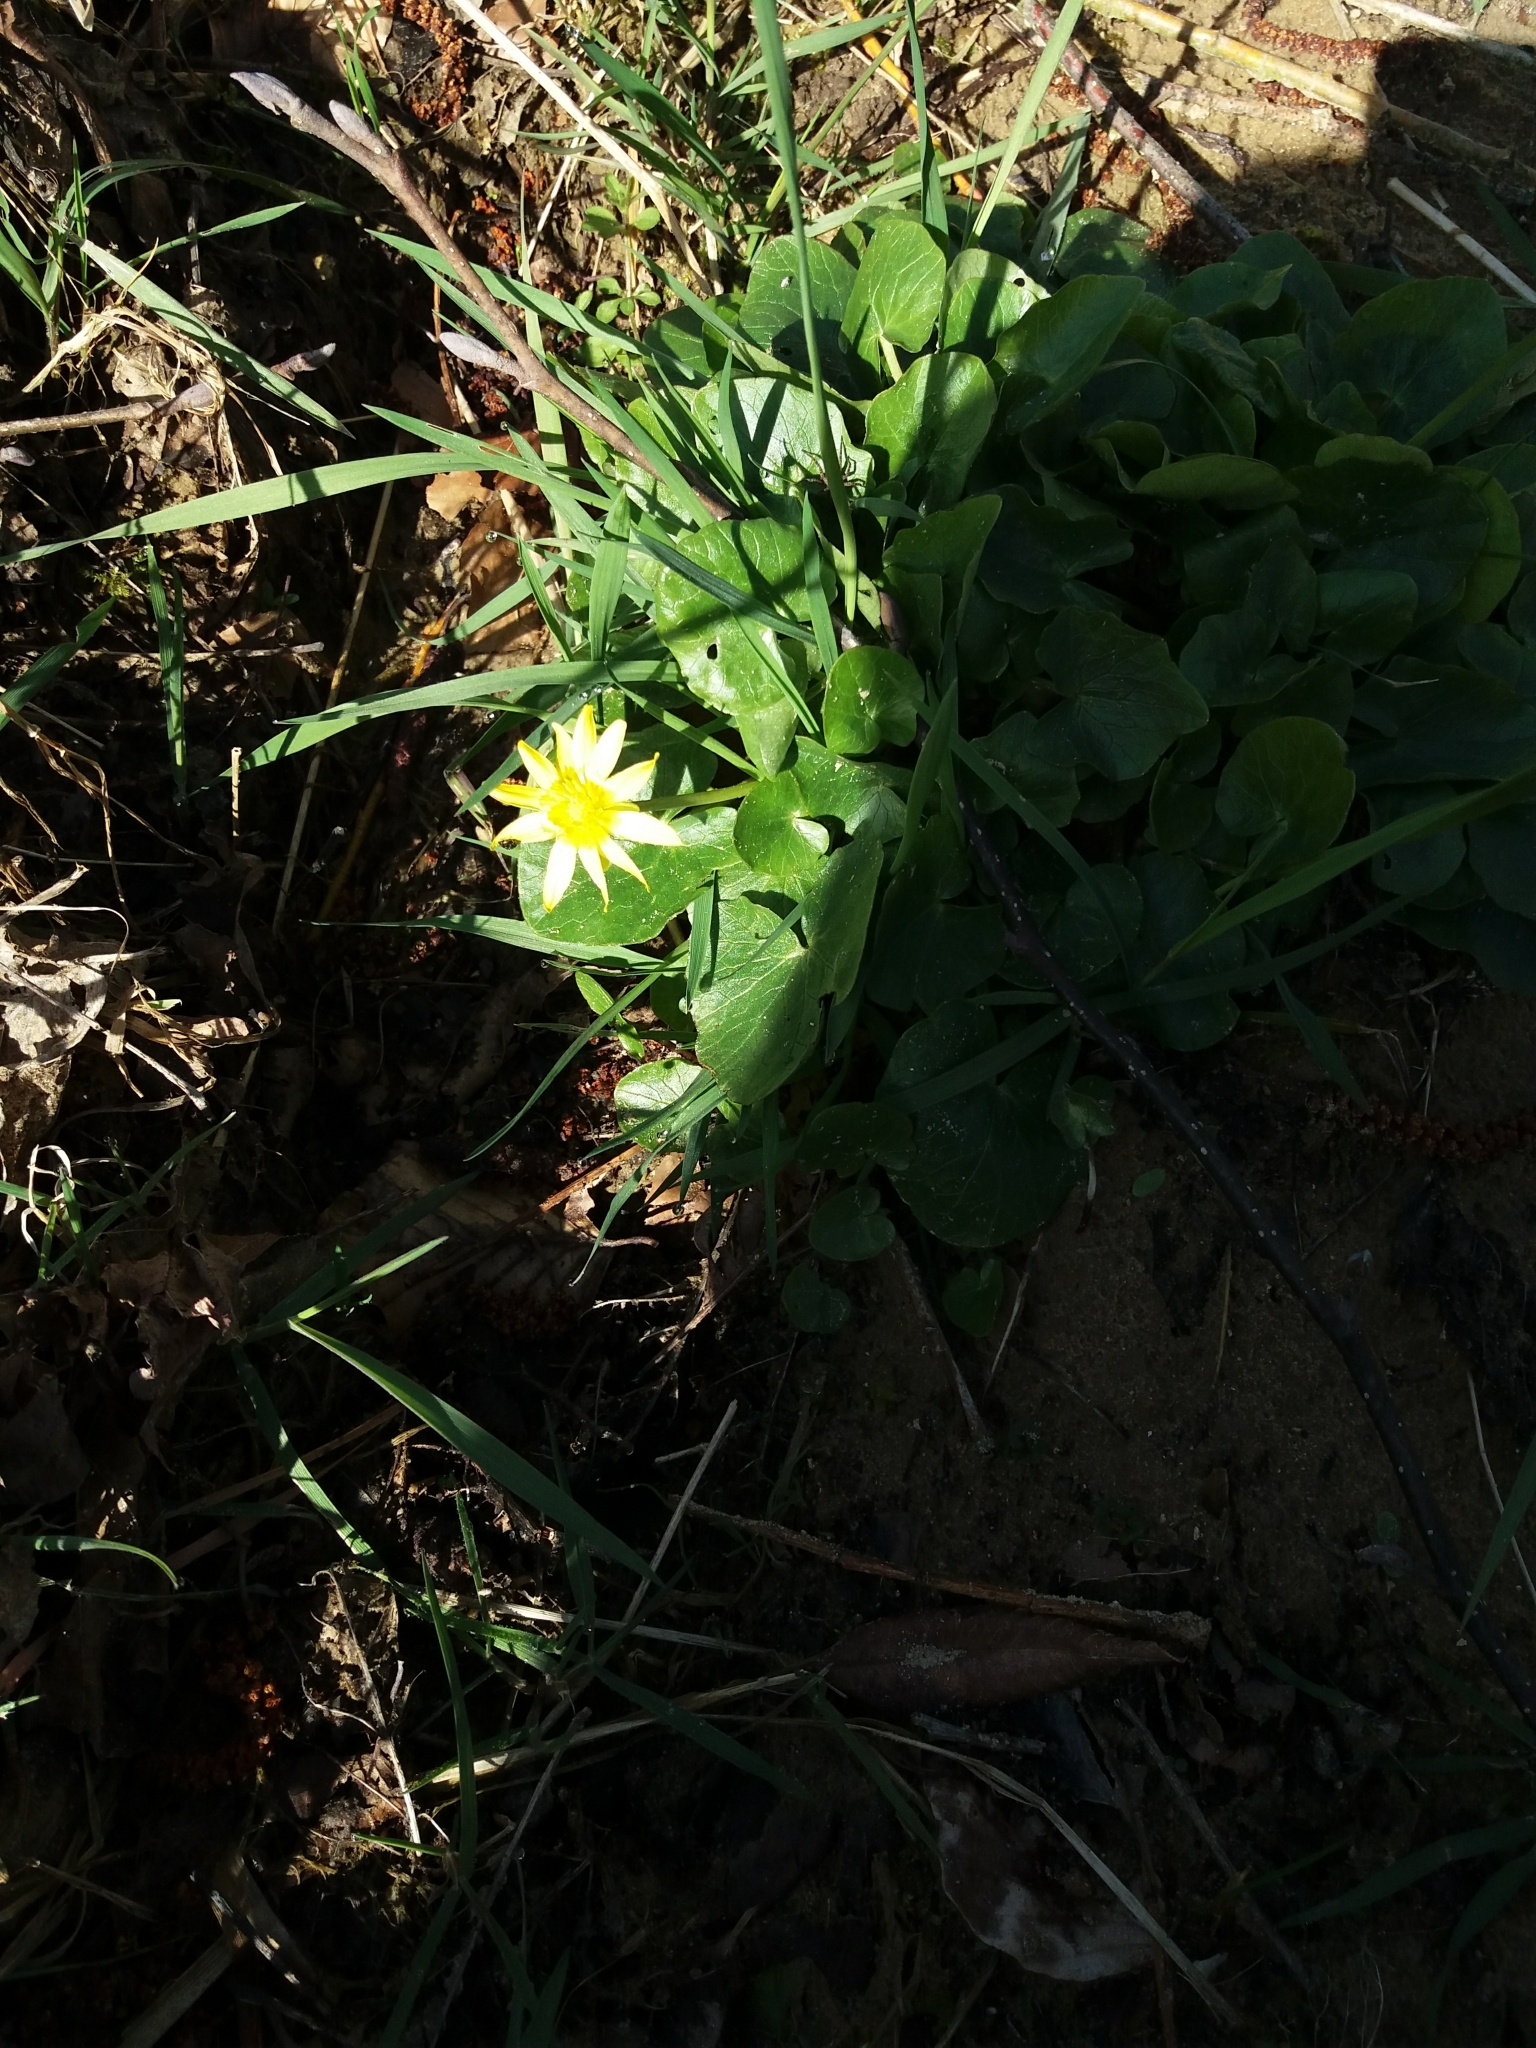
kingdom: Plantae
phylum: Tracheophyta
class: Magnoliopsida
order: Ranunculales
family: Ranunculaceae
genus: Ficaria
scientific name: Ficaria verna
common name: Lesser celandine
